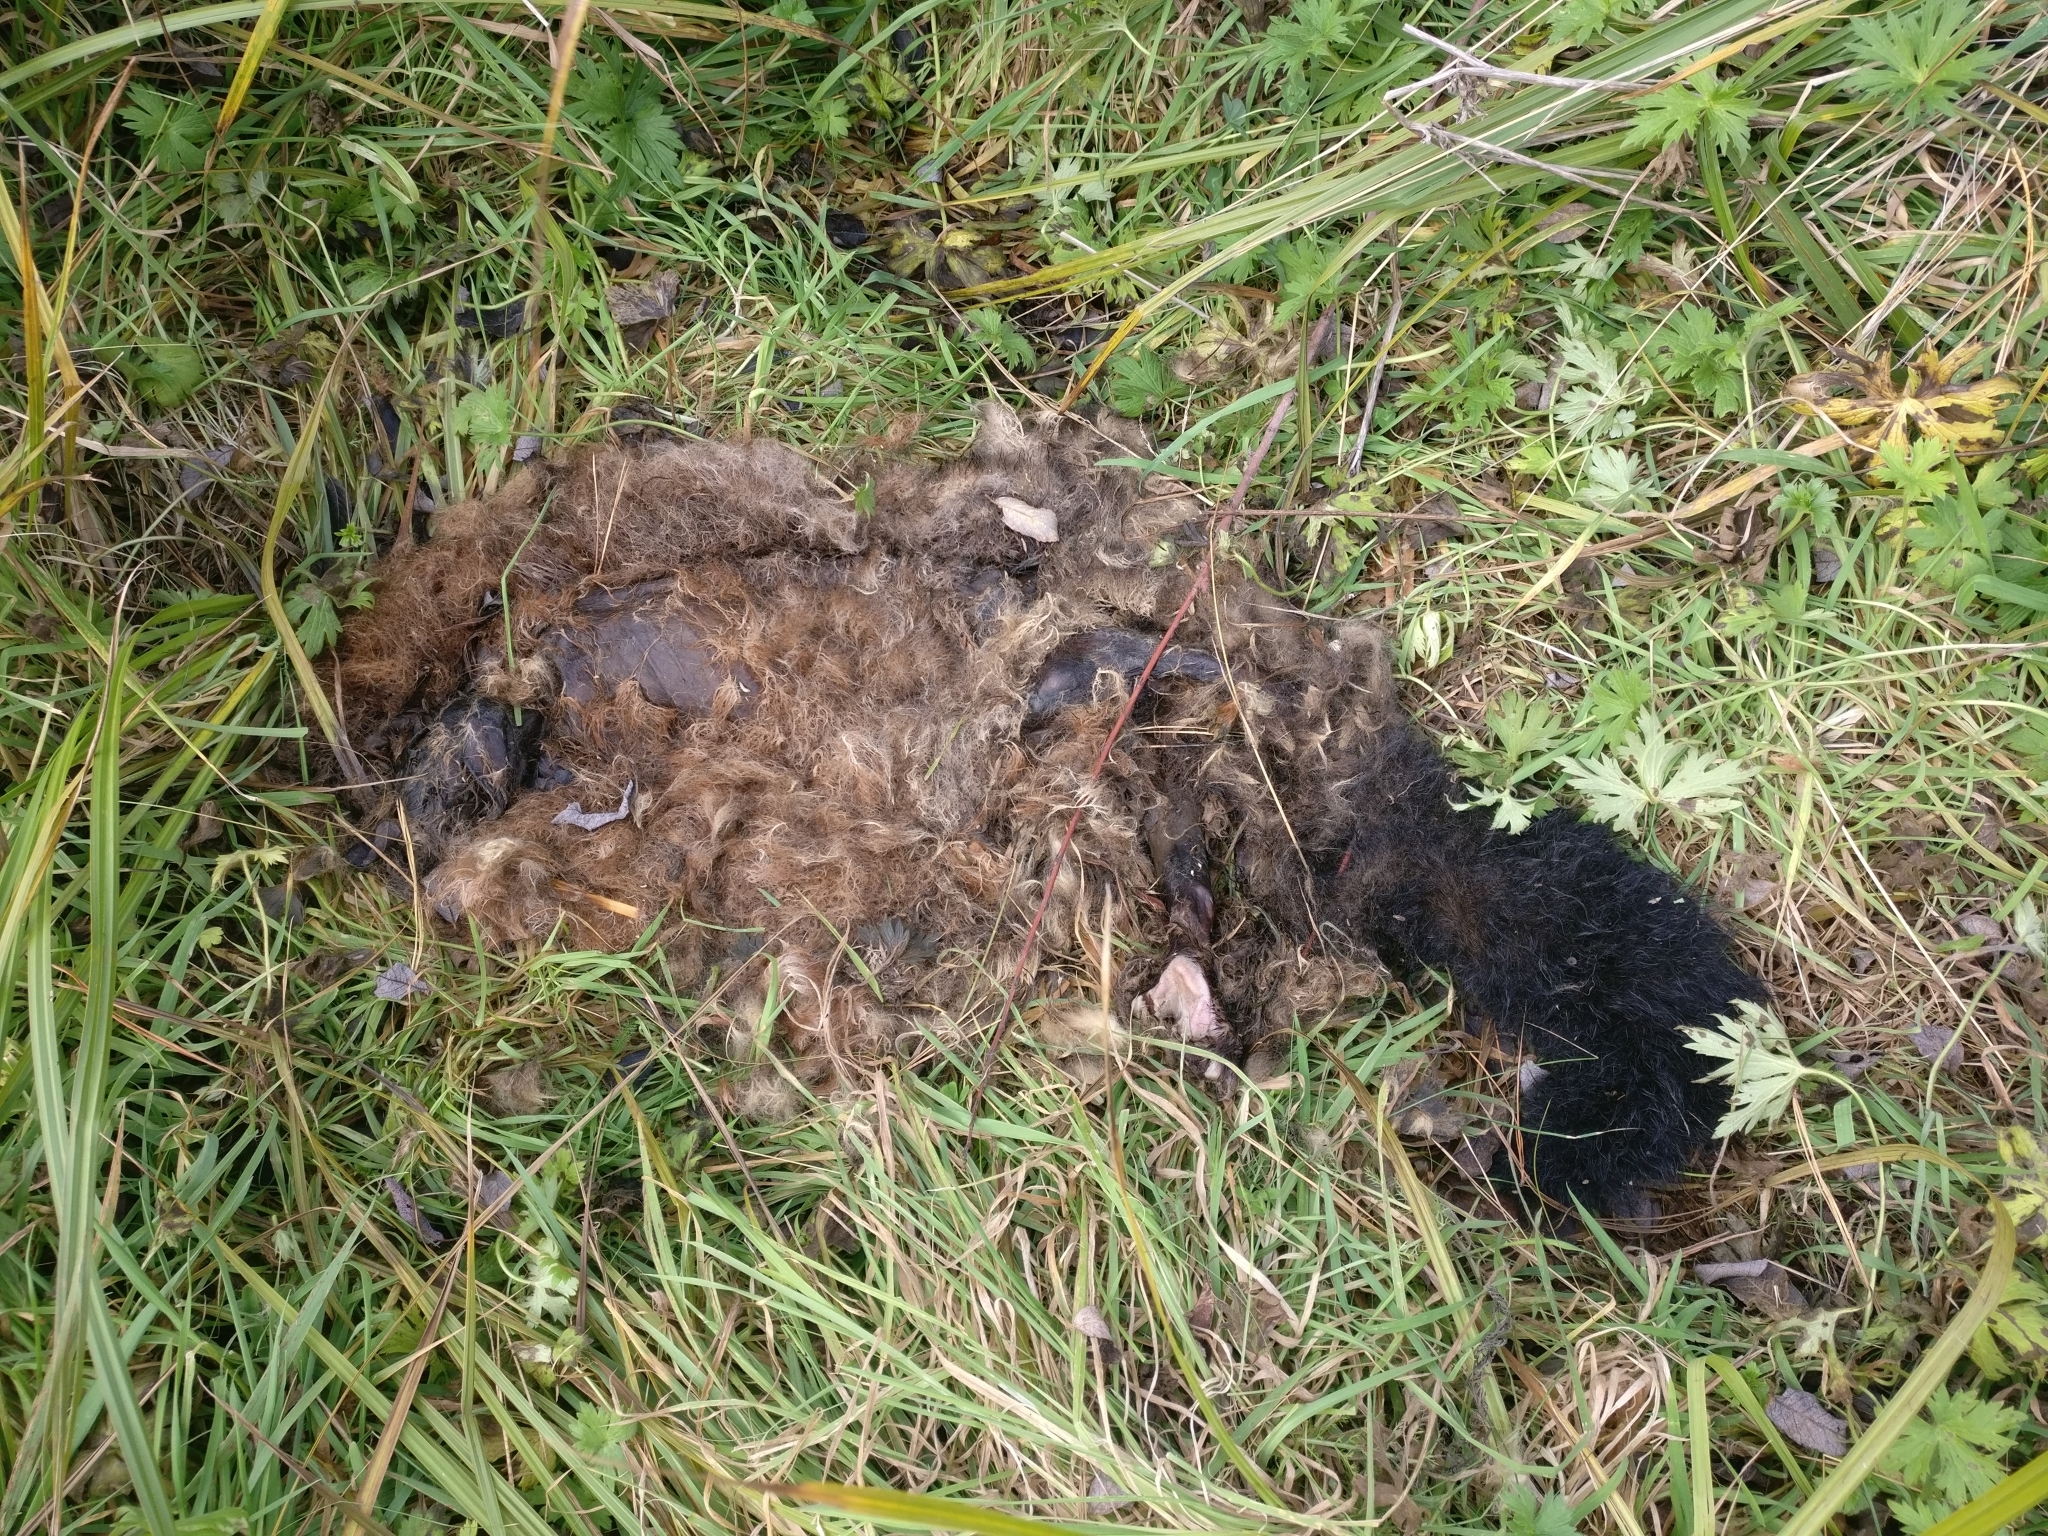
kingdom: Animalia
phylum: Chordata
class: Mammalia
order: Diprotodontia
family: Phalangeridae
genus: Trichosurus
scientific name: Trichosurus vulpecula
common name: Common brushtail
